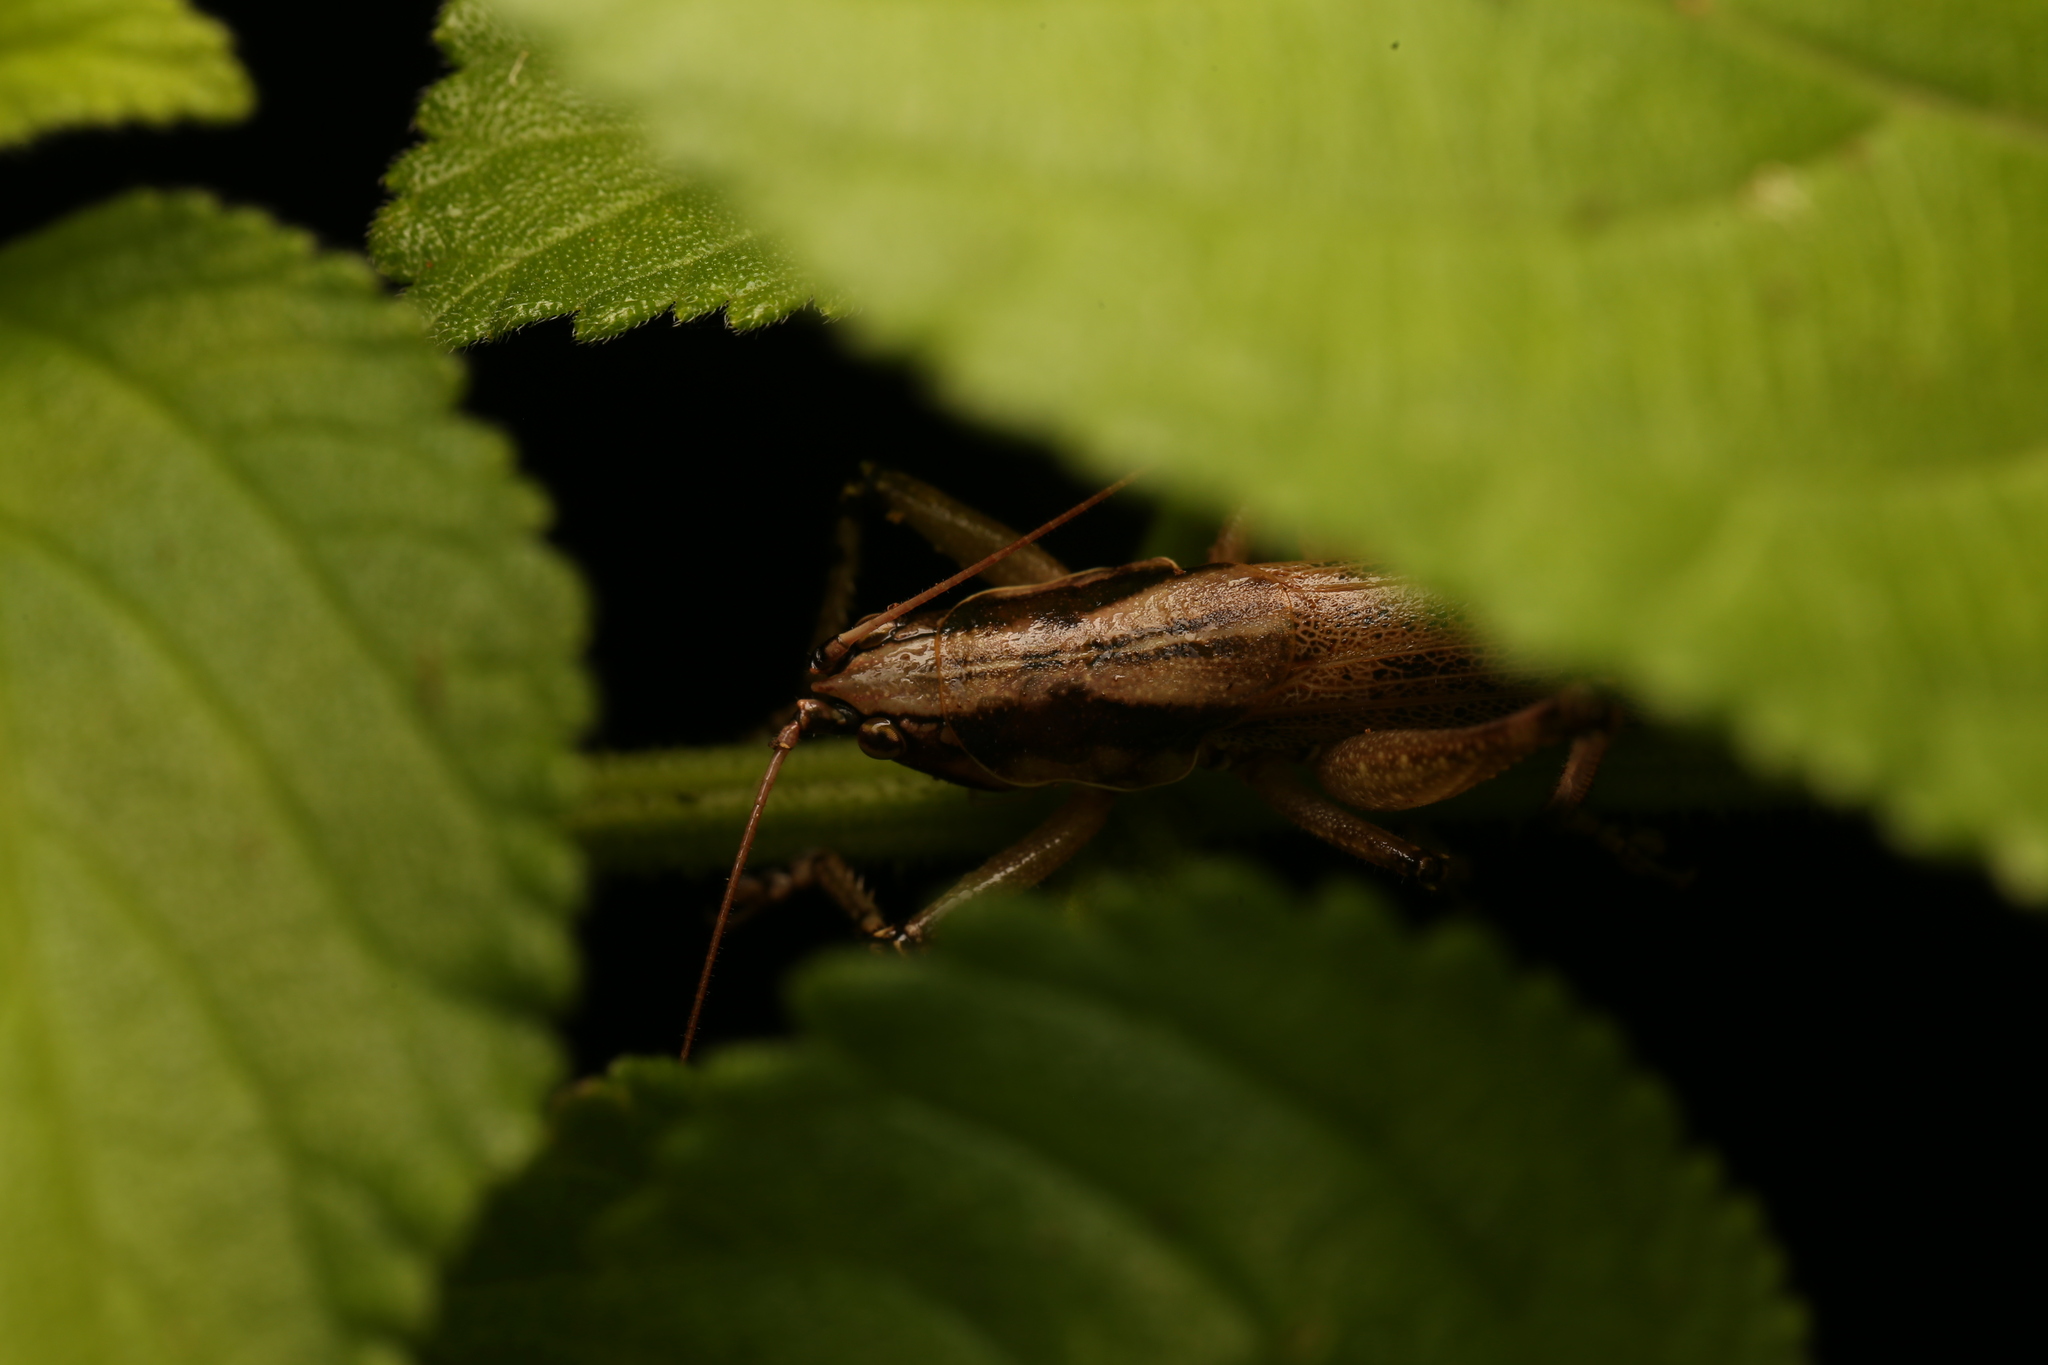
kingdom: Animalia
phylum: Arthropoda
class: Insecta
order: Orthoptera
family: Tettigoniidae
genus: Larifugagraecia
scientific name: Larifugagraecia spuria
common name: False nicsara
